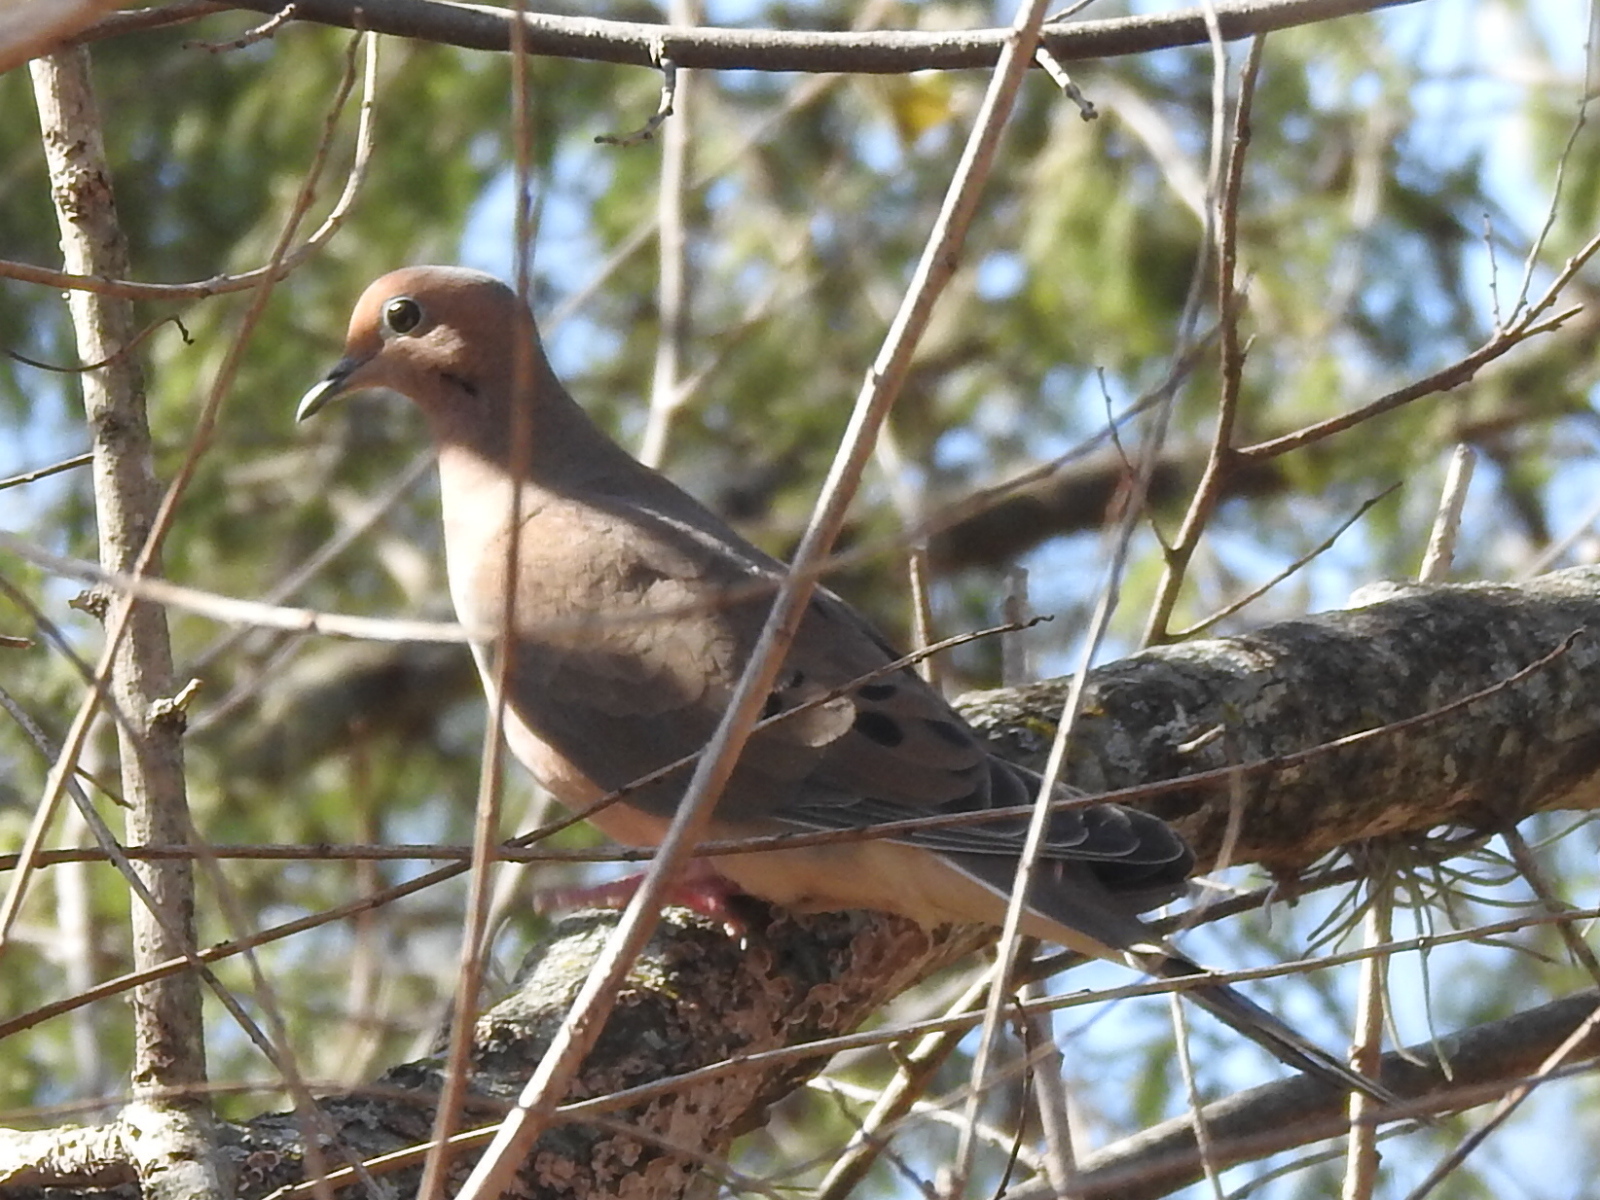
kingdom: Animalia
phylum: Chordata
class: Aves
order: Columbiformes
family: Columbidae
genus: Zenaida
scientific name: Zenaida macroura
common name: Mourning dove
